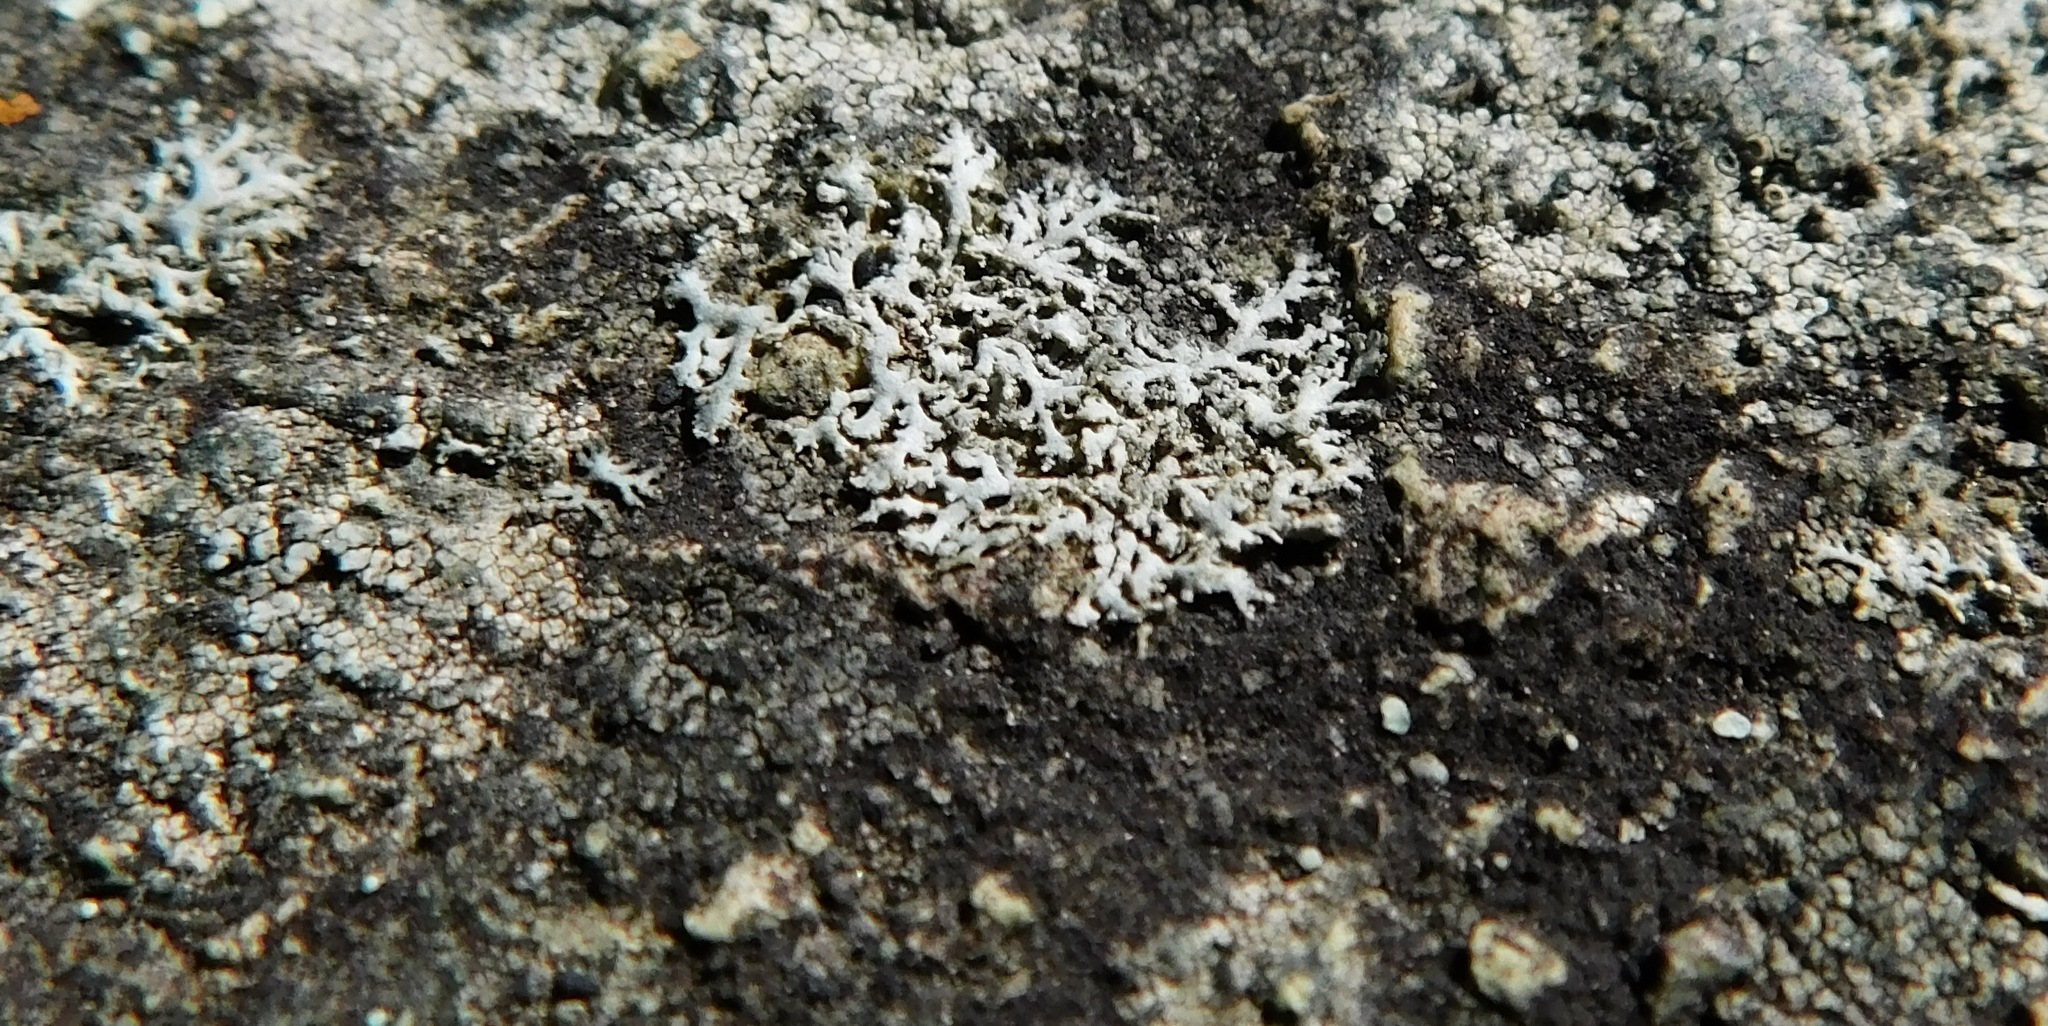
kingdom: Fungi
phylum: Ascomycota
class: Lecanoromycetes
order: Caliciales
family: Physciaceae
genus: Physcia
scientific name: Physcia subtilis
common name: Slender rosette lichen
